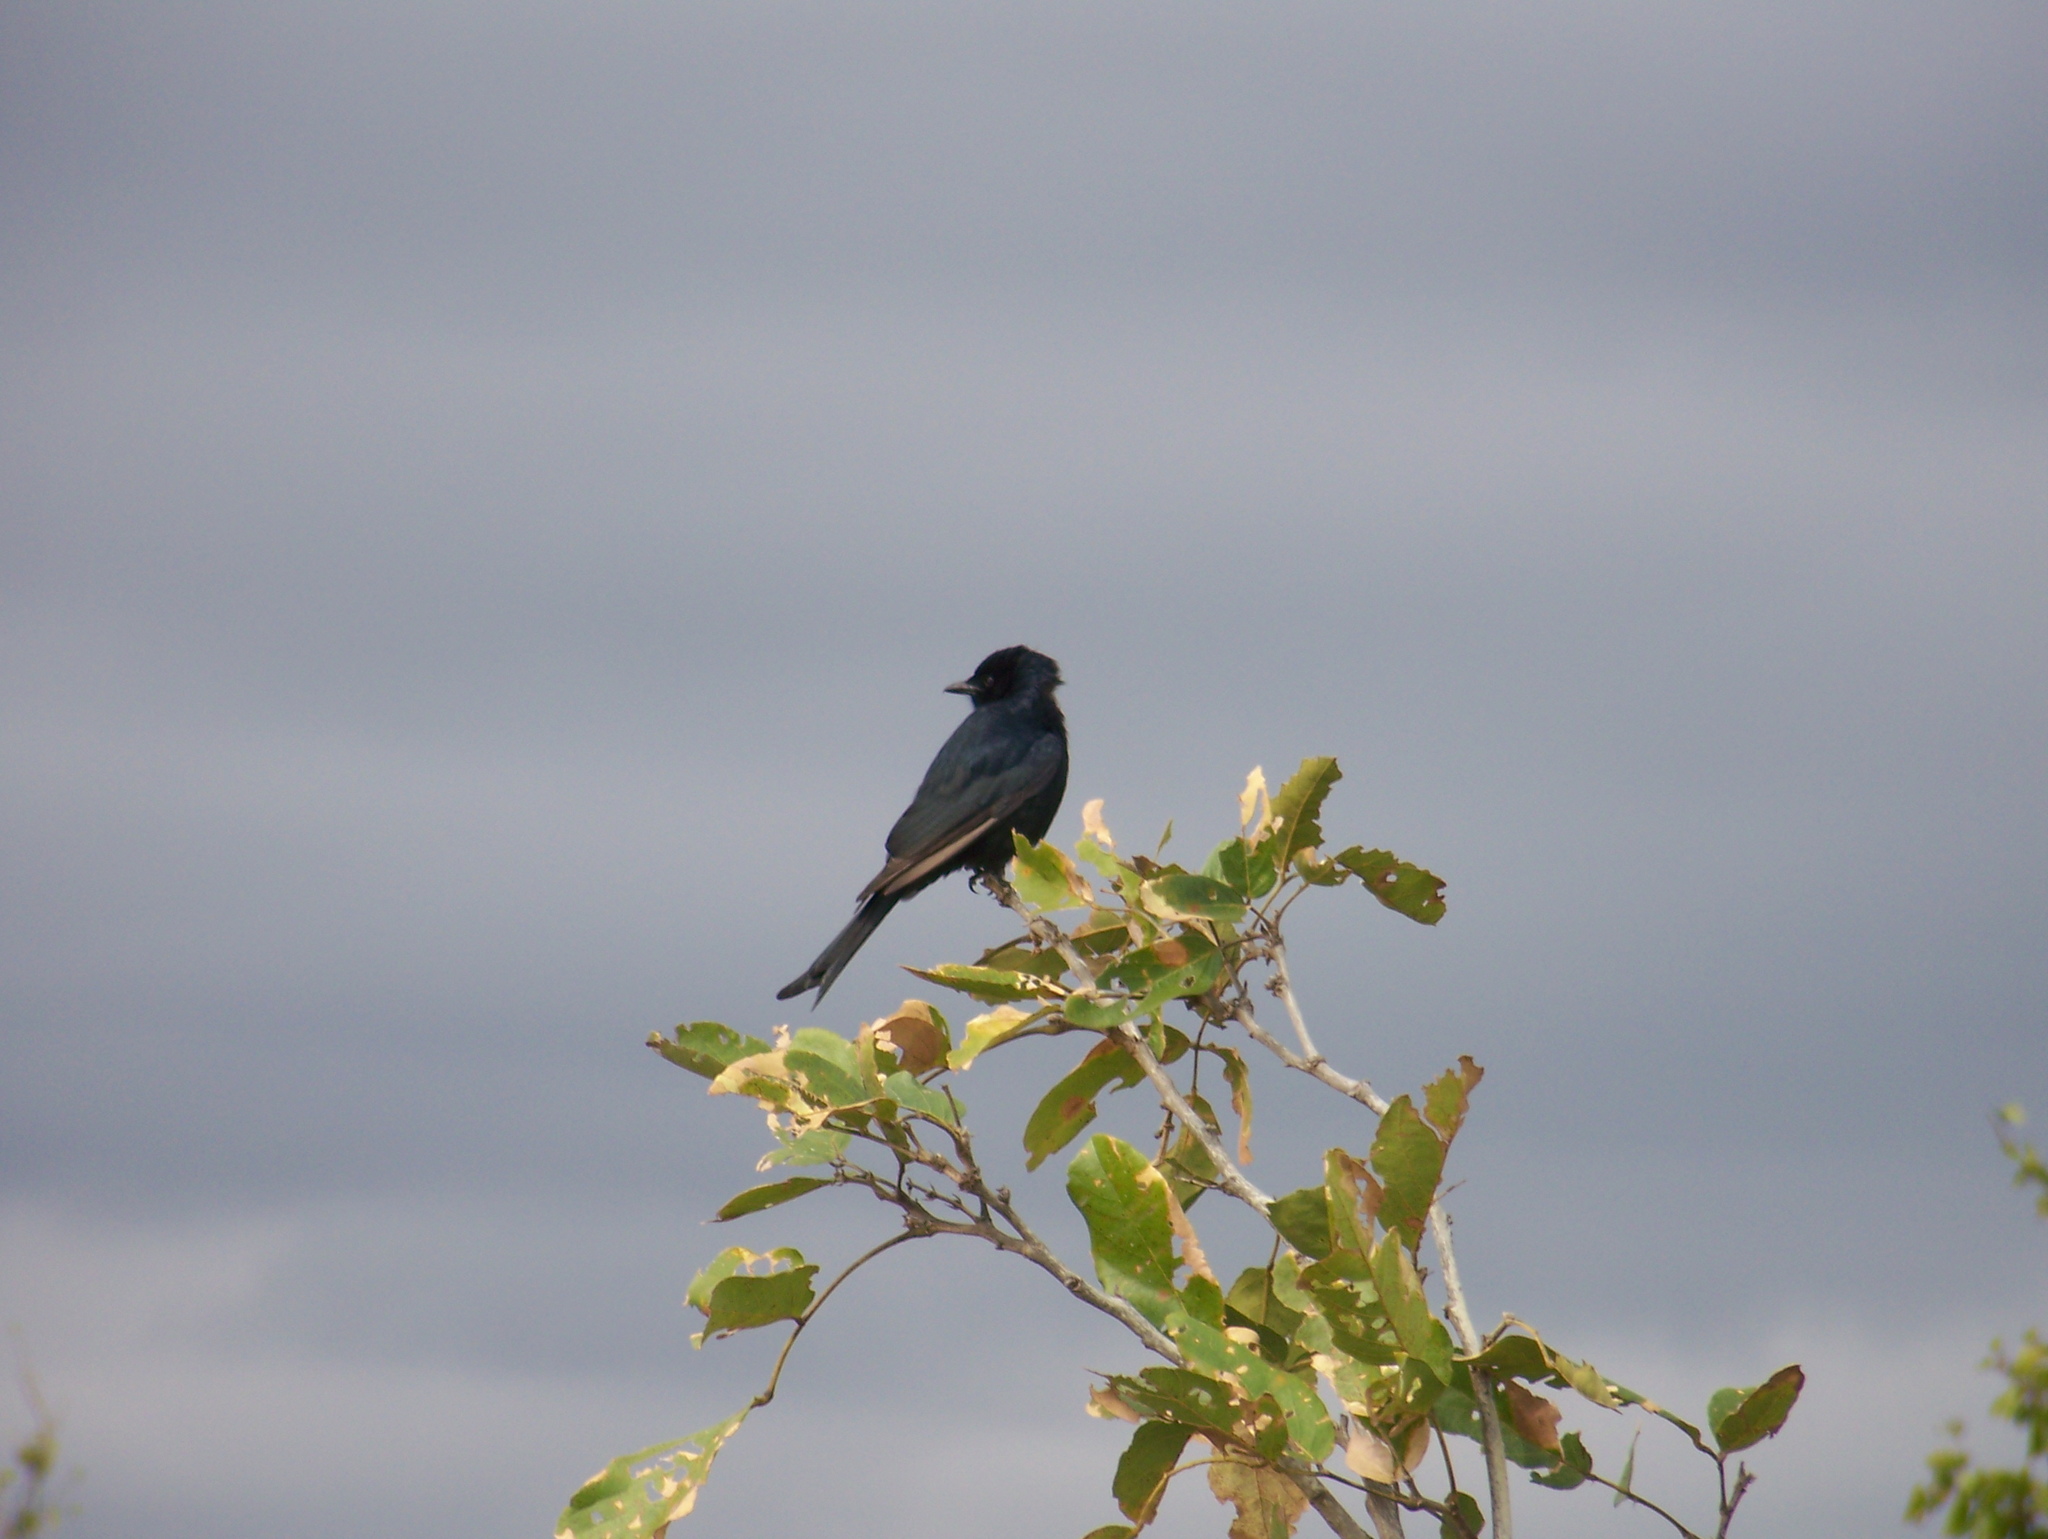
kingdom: Animalia
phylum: Chordata
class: Aves
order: Passeriformes
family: Dicruridae
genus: Dicrurus
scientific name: Dicrurus adsimilis
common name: Fork-tailed drongo
